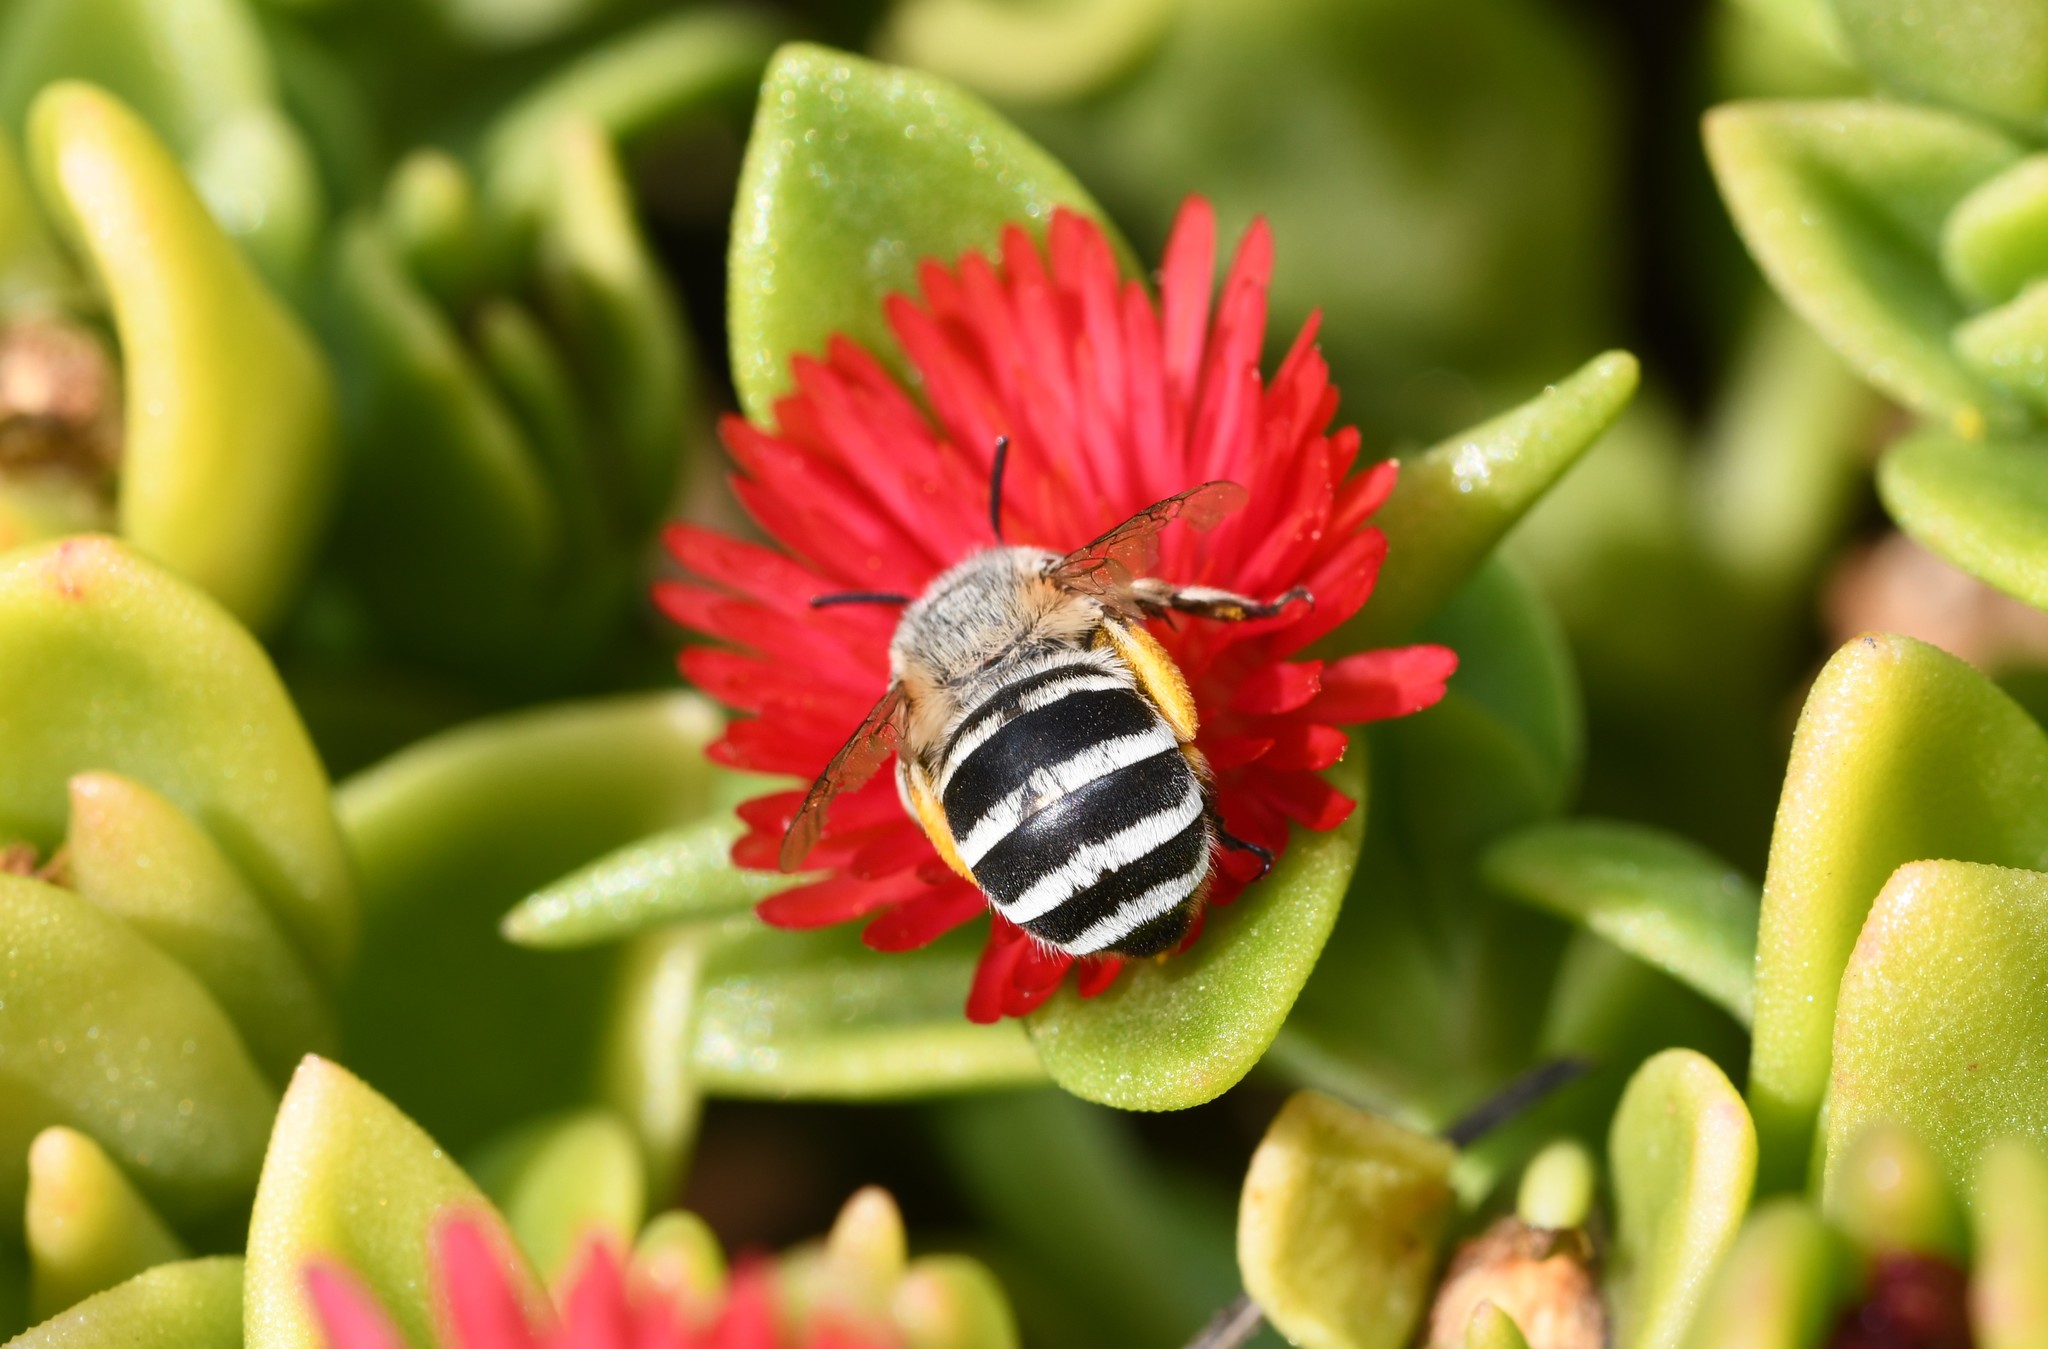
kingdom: Animalia
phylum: Arthropoda
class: Insecta
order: Hymenoptera
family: Apidae
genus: Amegilla
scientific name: Amegilla albigena
